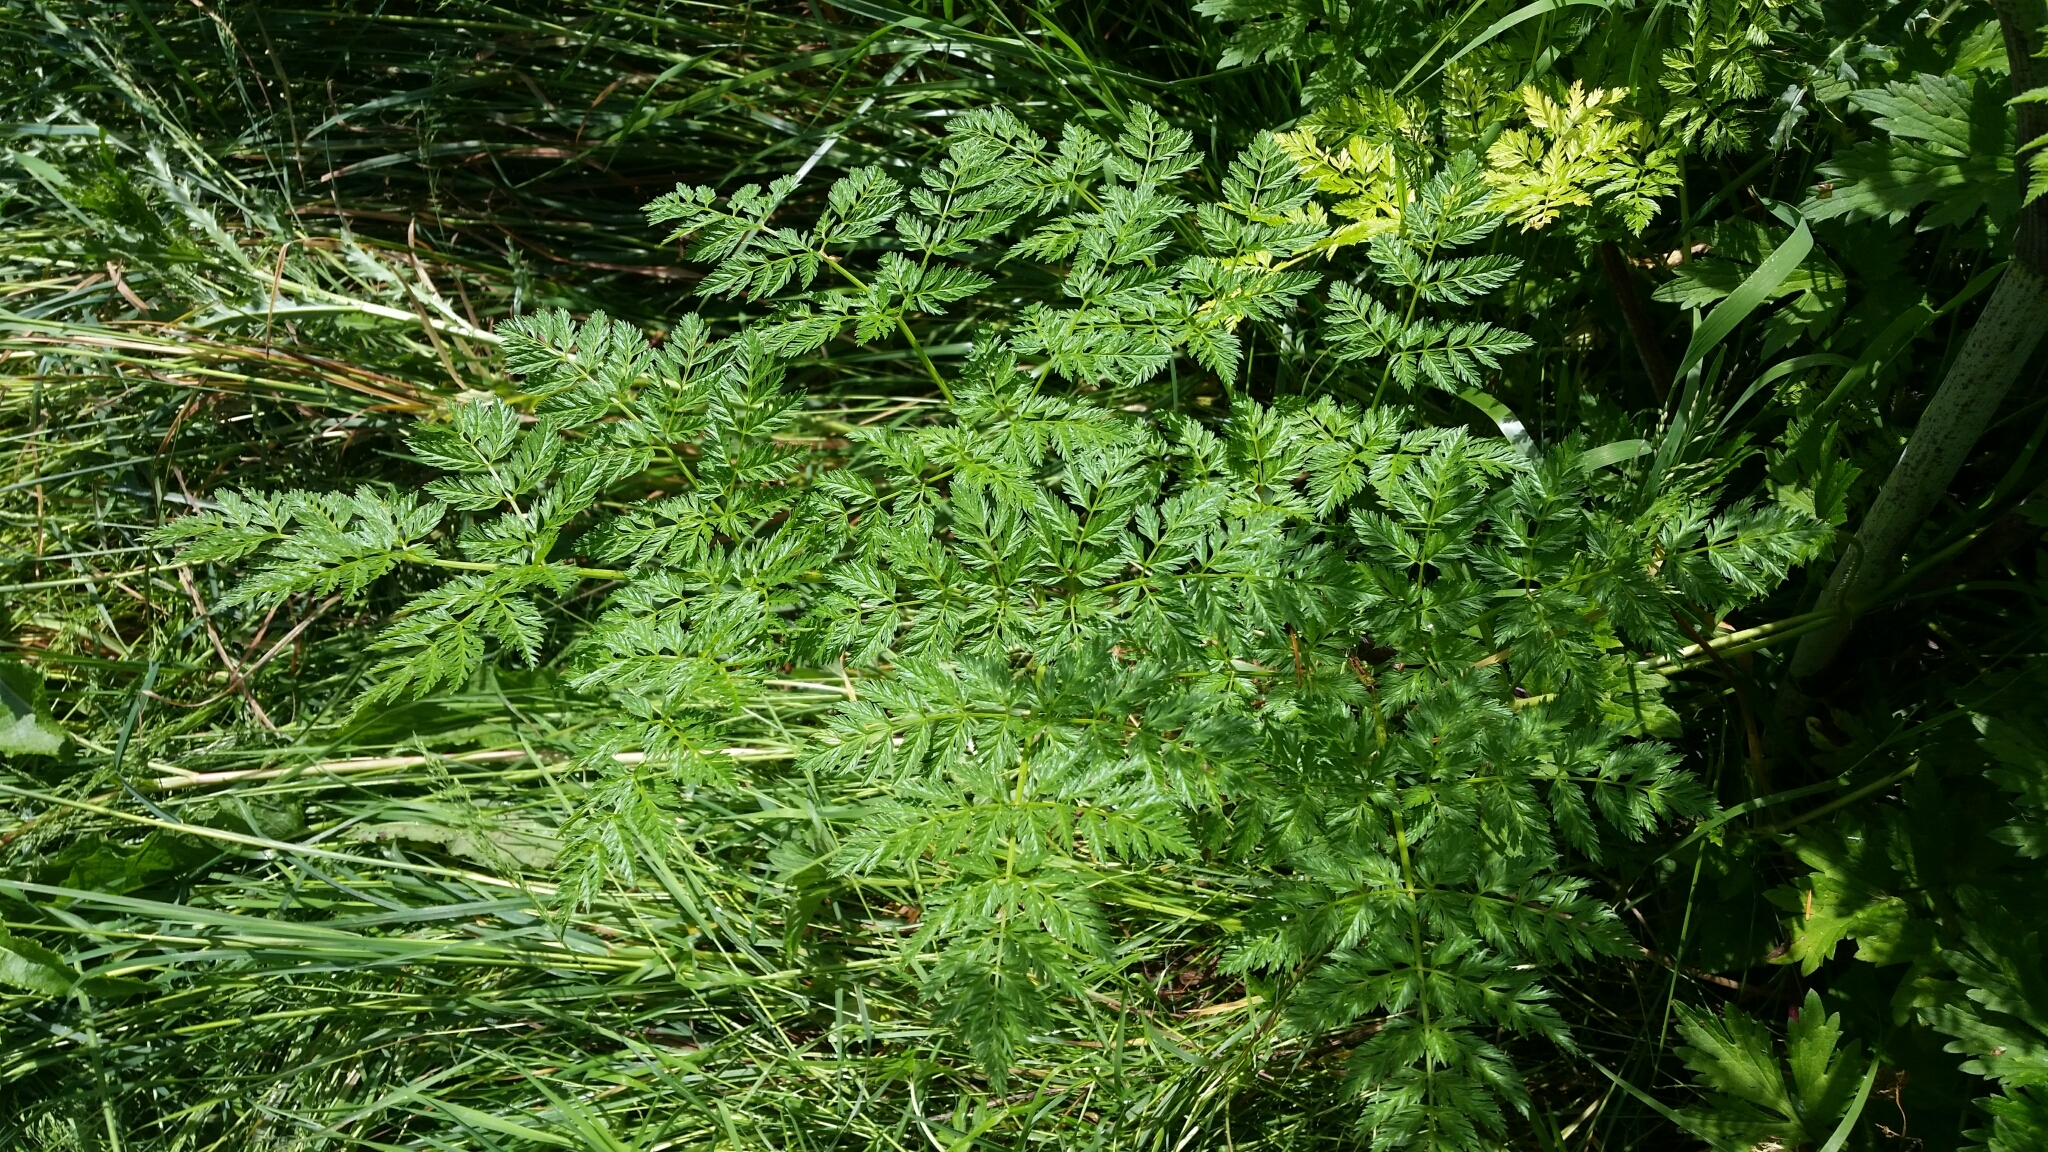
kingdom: Plantae
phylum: Tracheophyta
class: Magnoliopsida
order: Apiales
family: Apiaceae
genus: Conium
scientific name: Conium maculatum
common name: Hemlock
